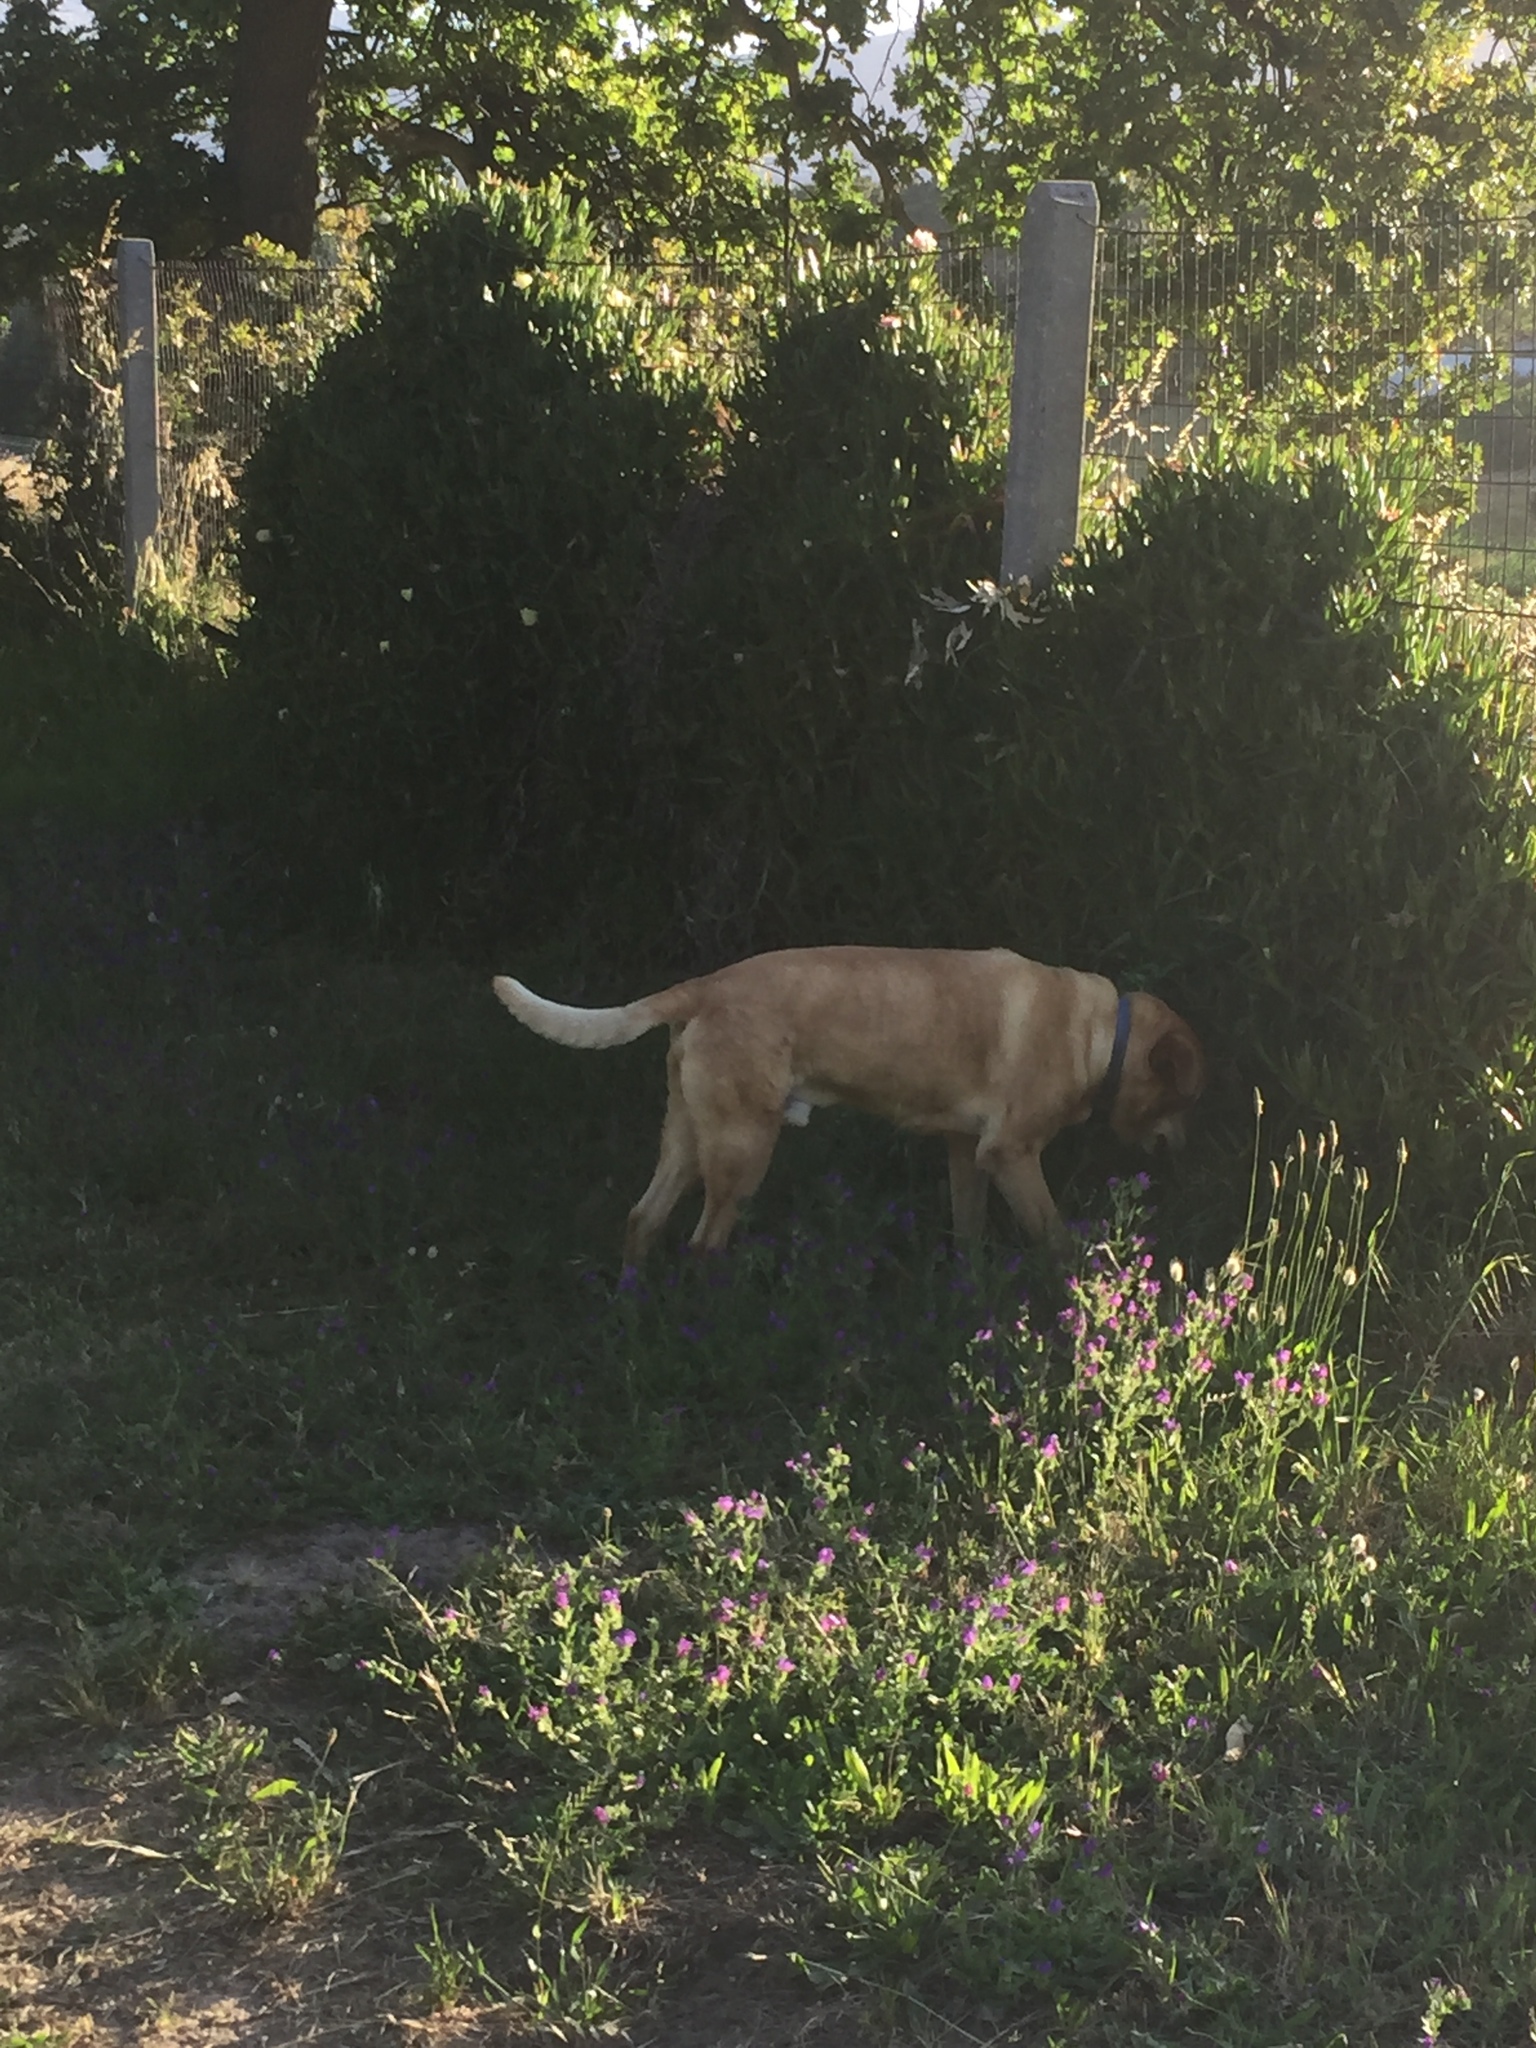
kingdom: Plantae
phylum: Tracheophyta
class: Magnoliopsida
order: Caryophyllales
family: Aizoaceae
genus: Carpobrotus
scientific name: Carpobrotus edulis
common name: Hottentot-fig
